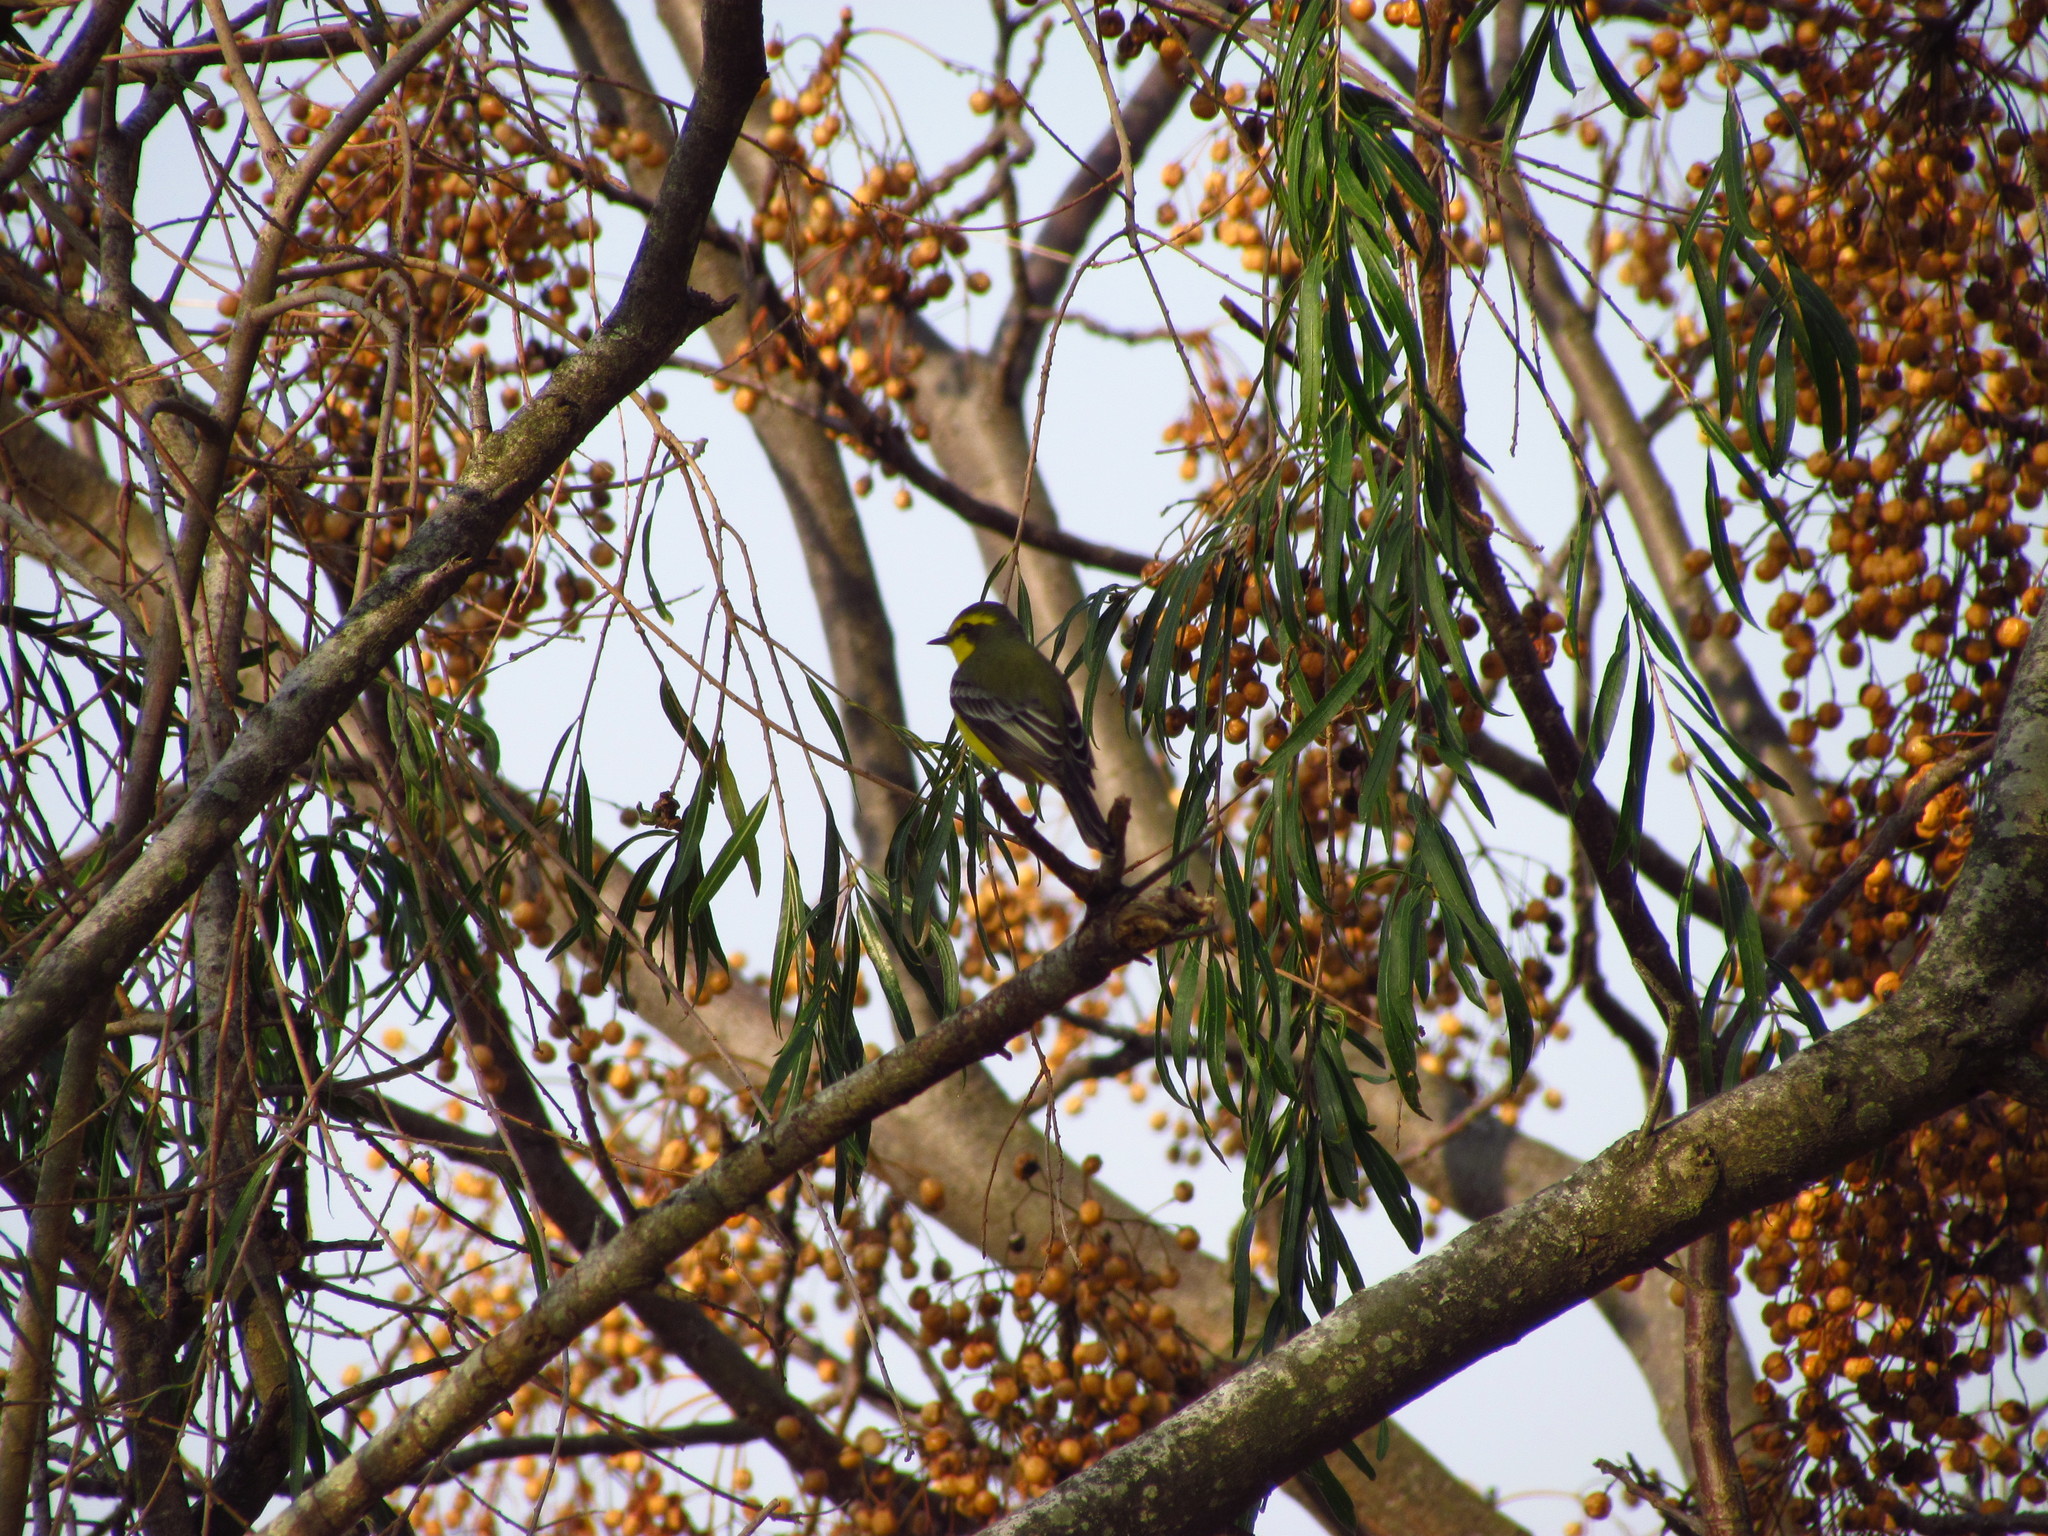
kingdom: Animalia
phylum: Chordata
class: Aves
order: Passeriformes
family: Tyrannidae
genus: Satrapa
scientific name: Satrapa icterophrys
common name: Yellow-browed tyrant
